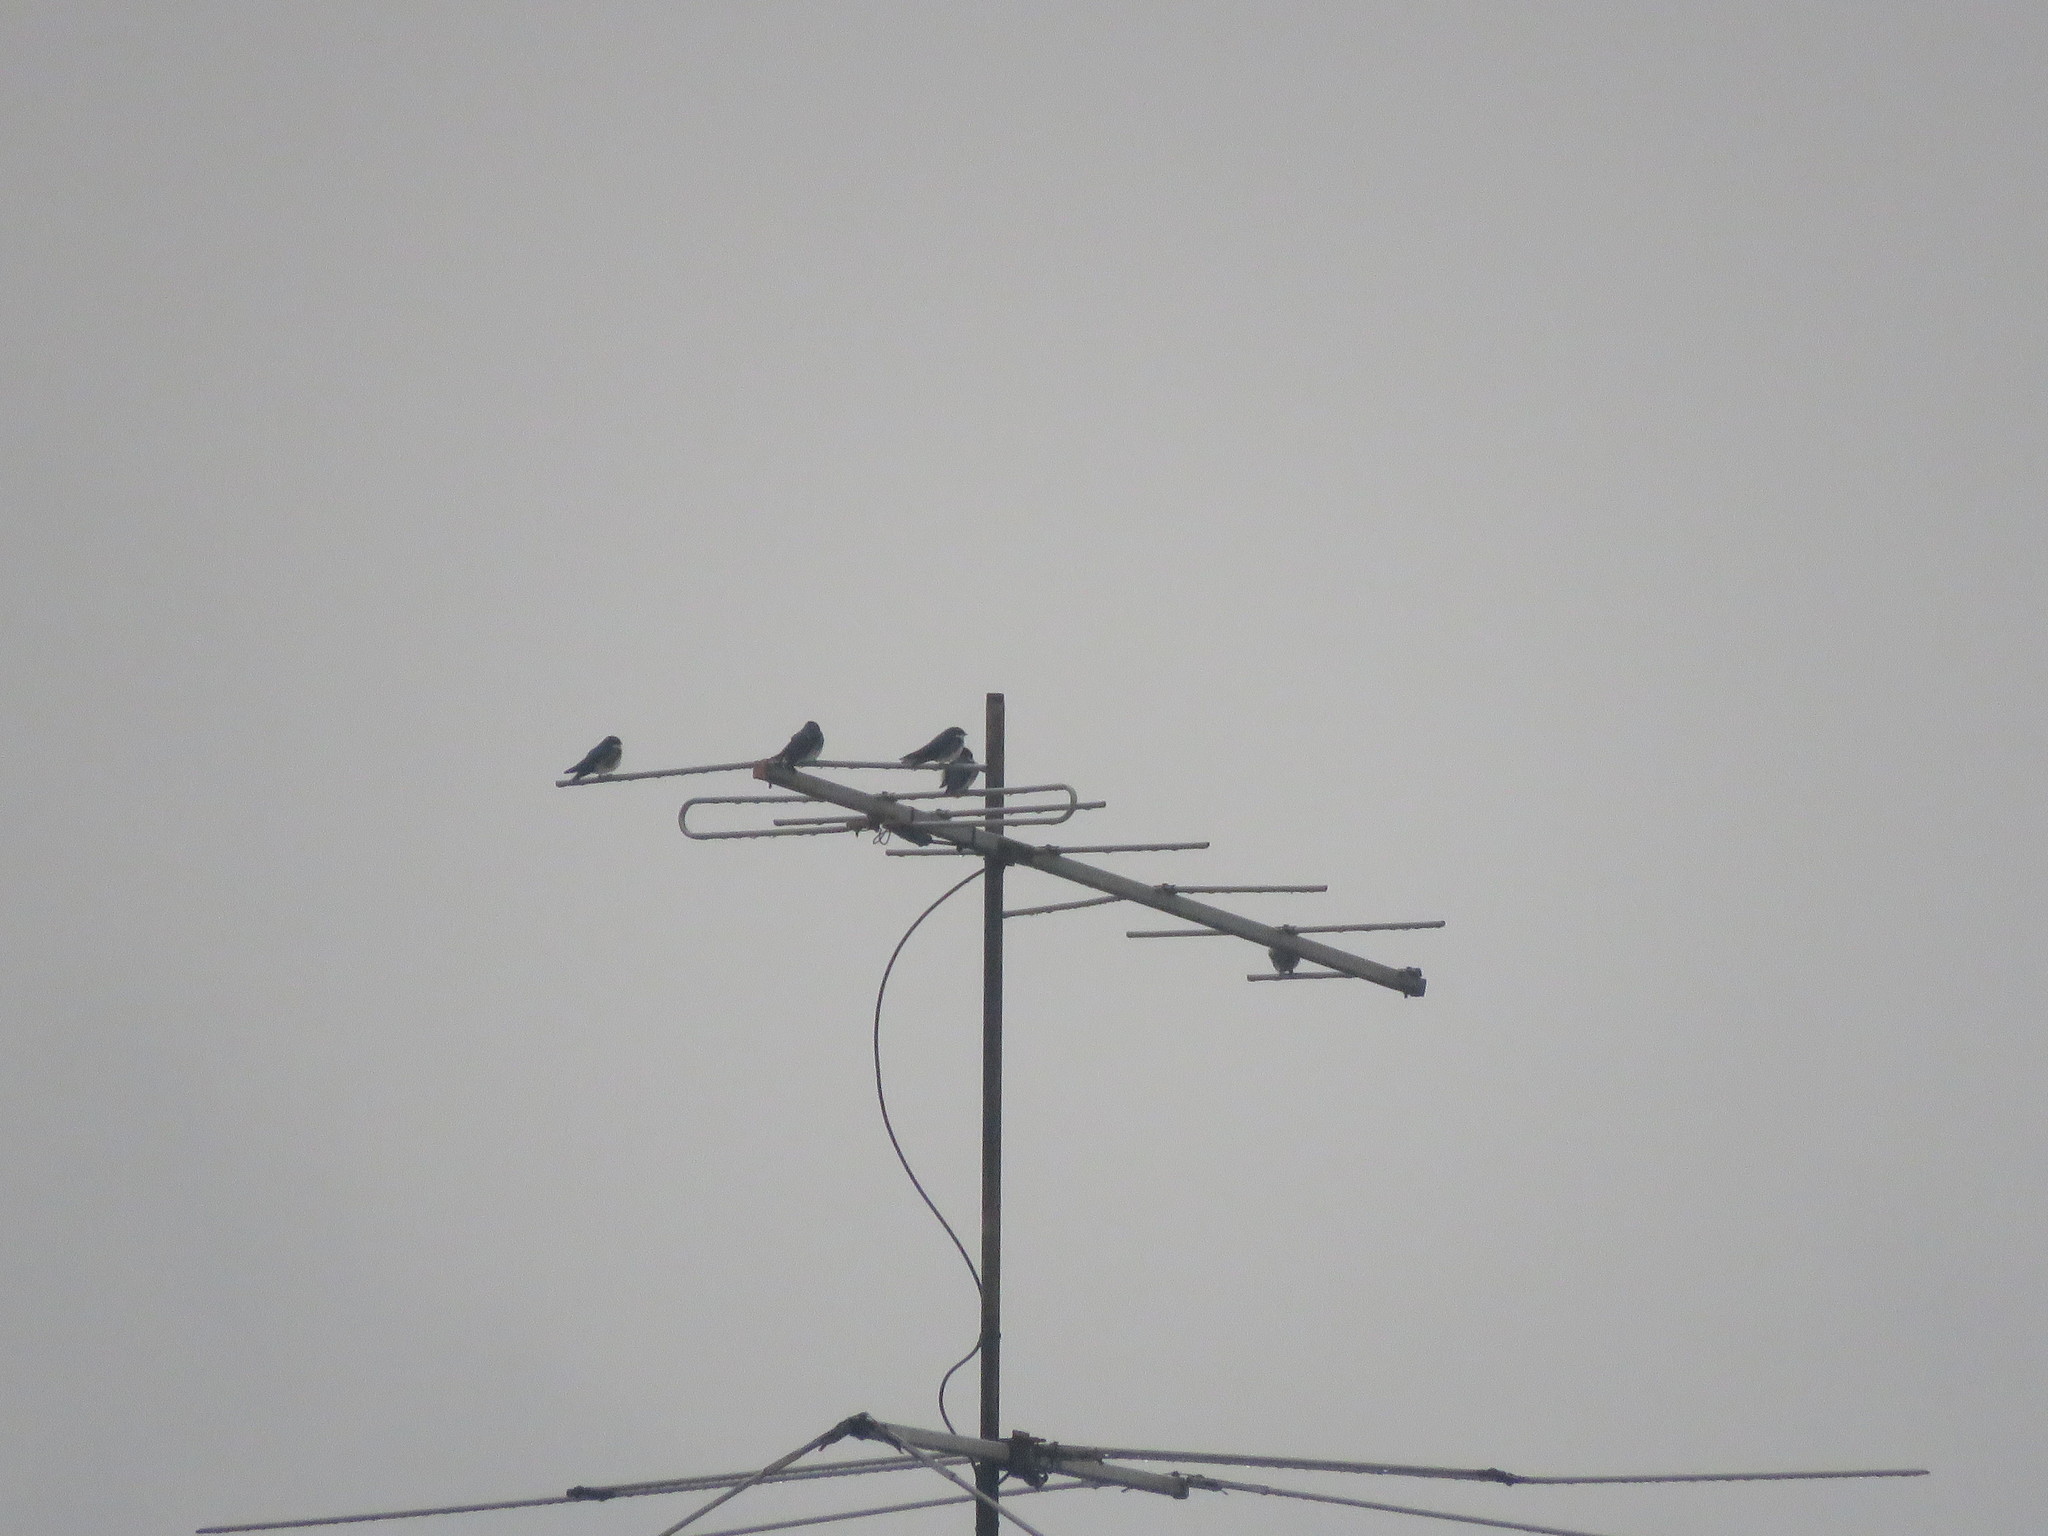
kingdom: Animalia
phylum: Chordata
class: Aves
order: Passeriformes
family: Hirundinidae
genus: Notiochelidon
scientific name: Notiochelidon cyanoleuca
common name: Blue-and-white swallow
